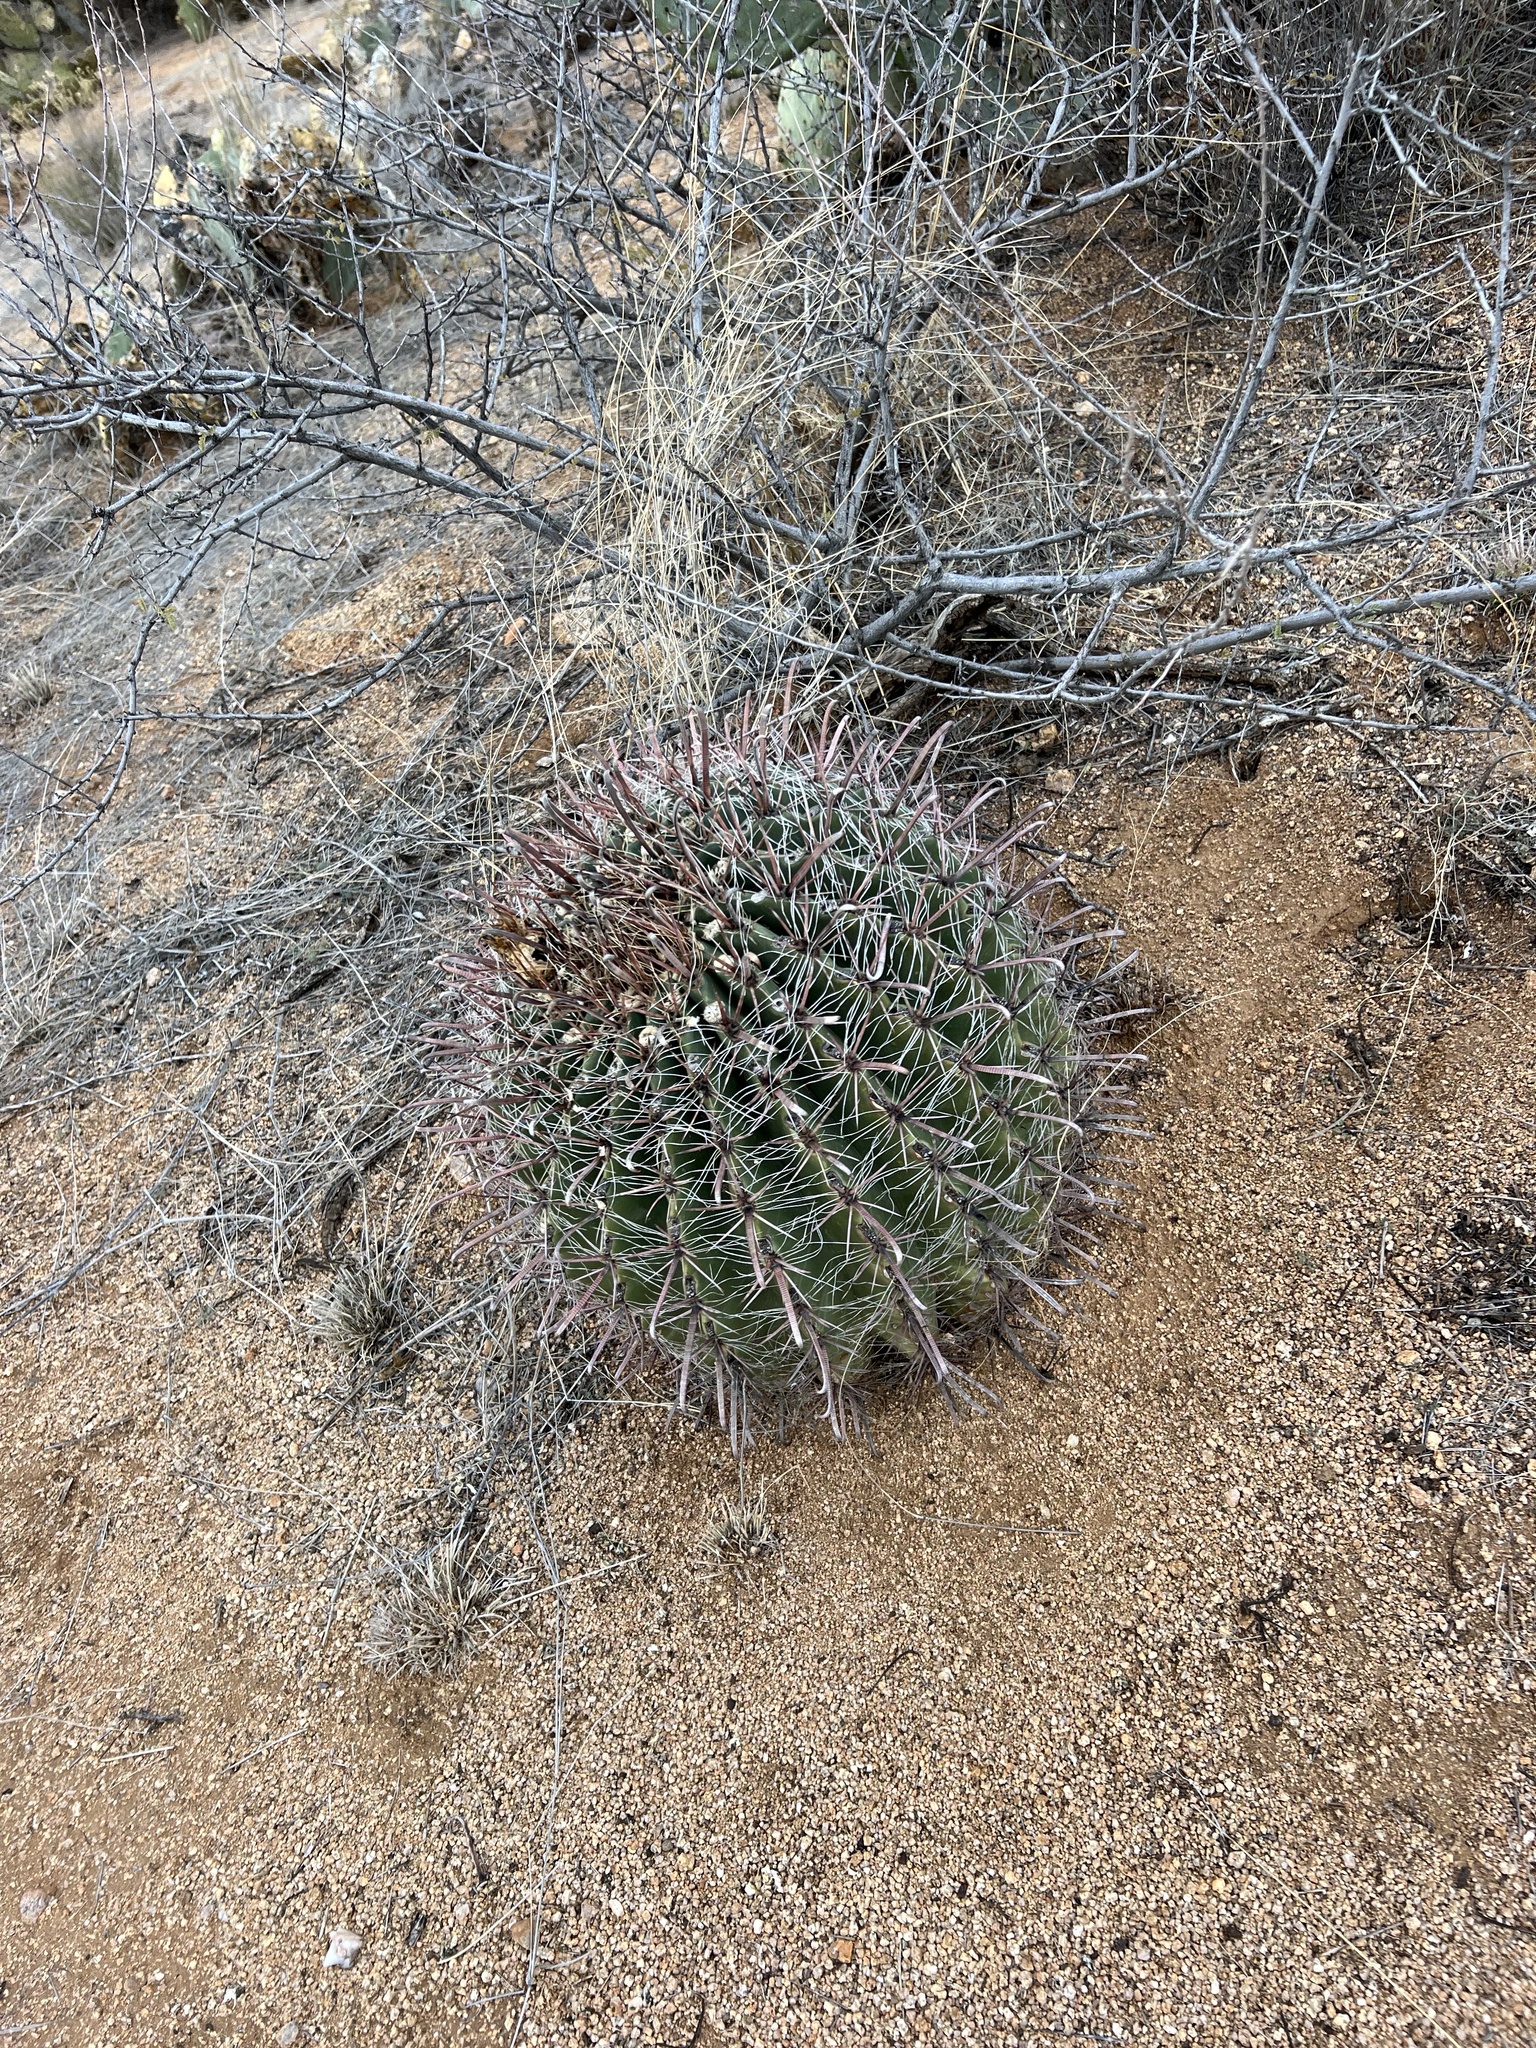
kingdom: Plantae
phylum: Tracheophyta
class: Magnoliopsida
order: Caryophyllales
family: Cactaceae
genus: Ferocactus
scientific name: Ferocactus wislizeni
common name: Candy barrel cactus
